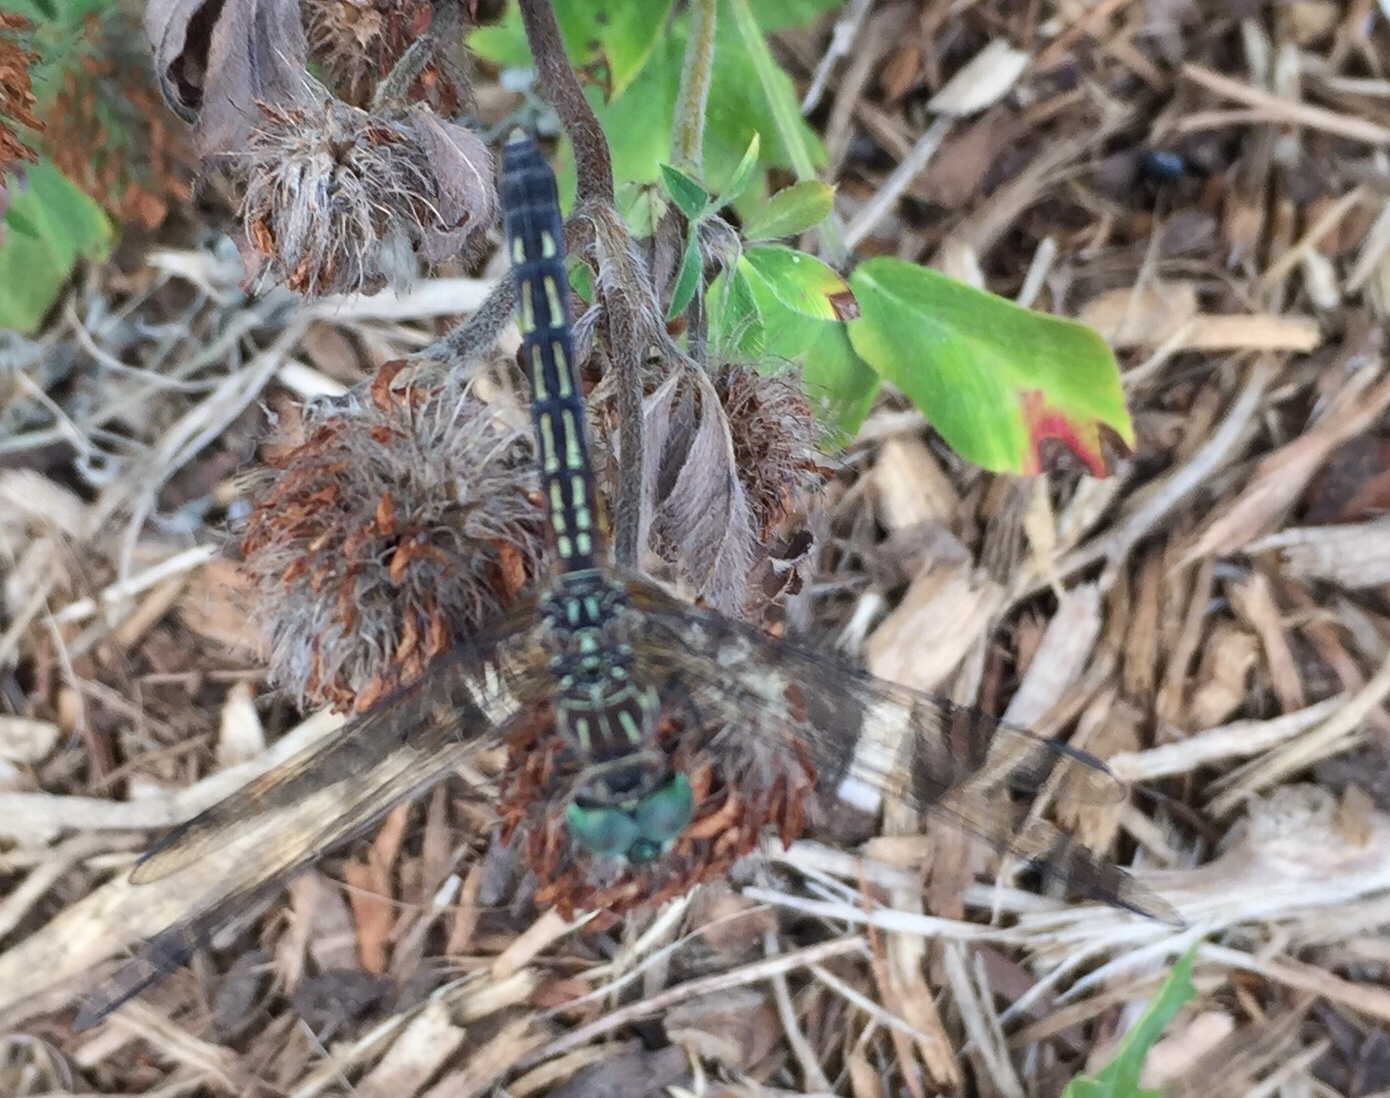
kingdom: Animalia
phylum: Arthropoda
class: Insecta
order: Odonata
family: Libellulidae
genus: Pachydiplax
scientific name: Pachydiplax longipennis
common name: Blue dasher
